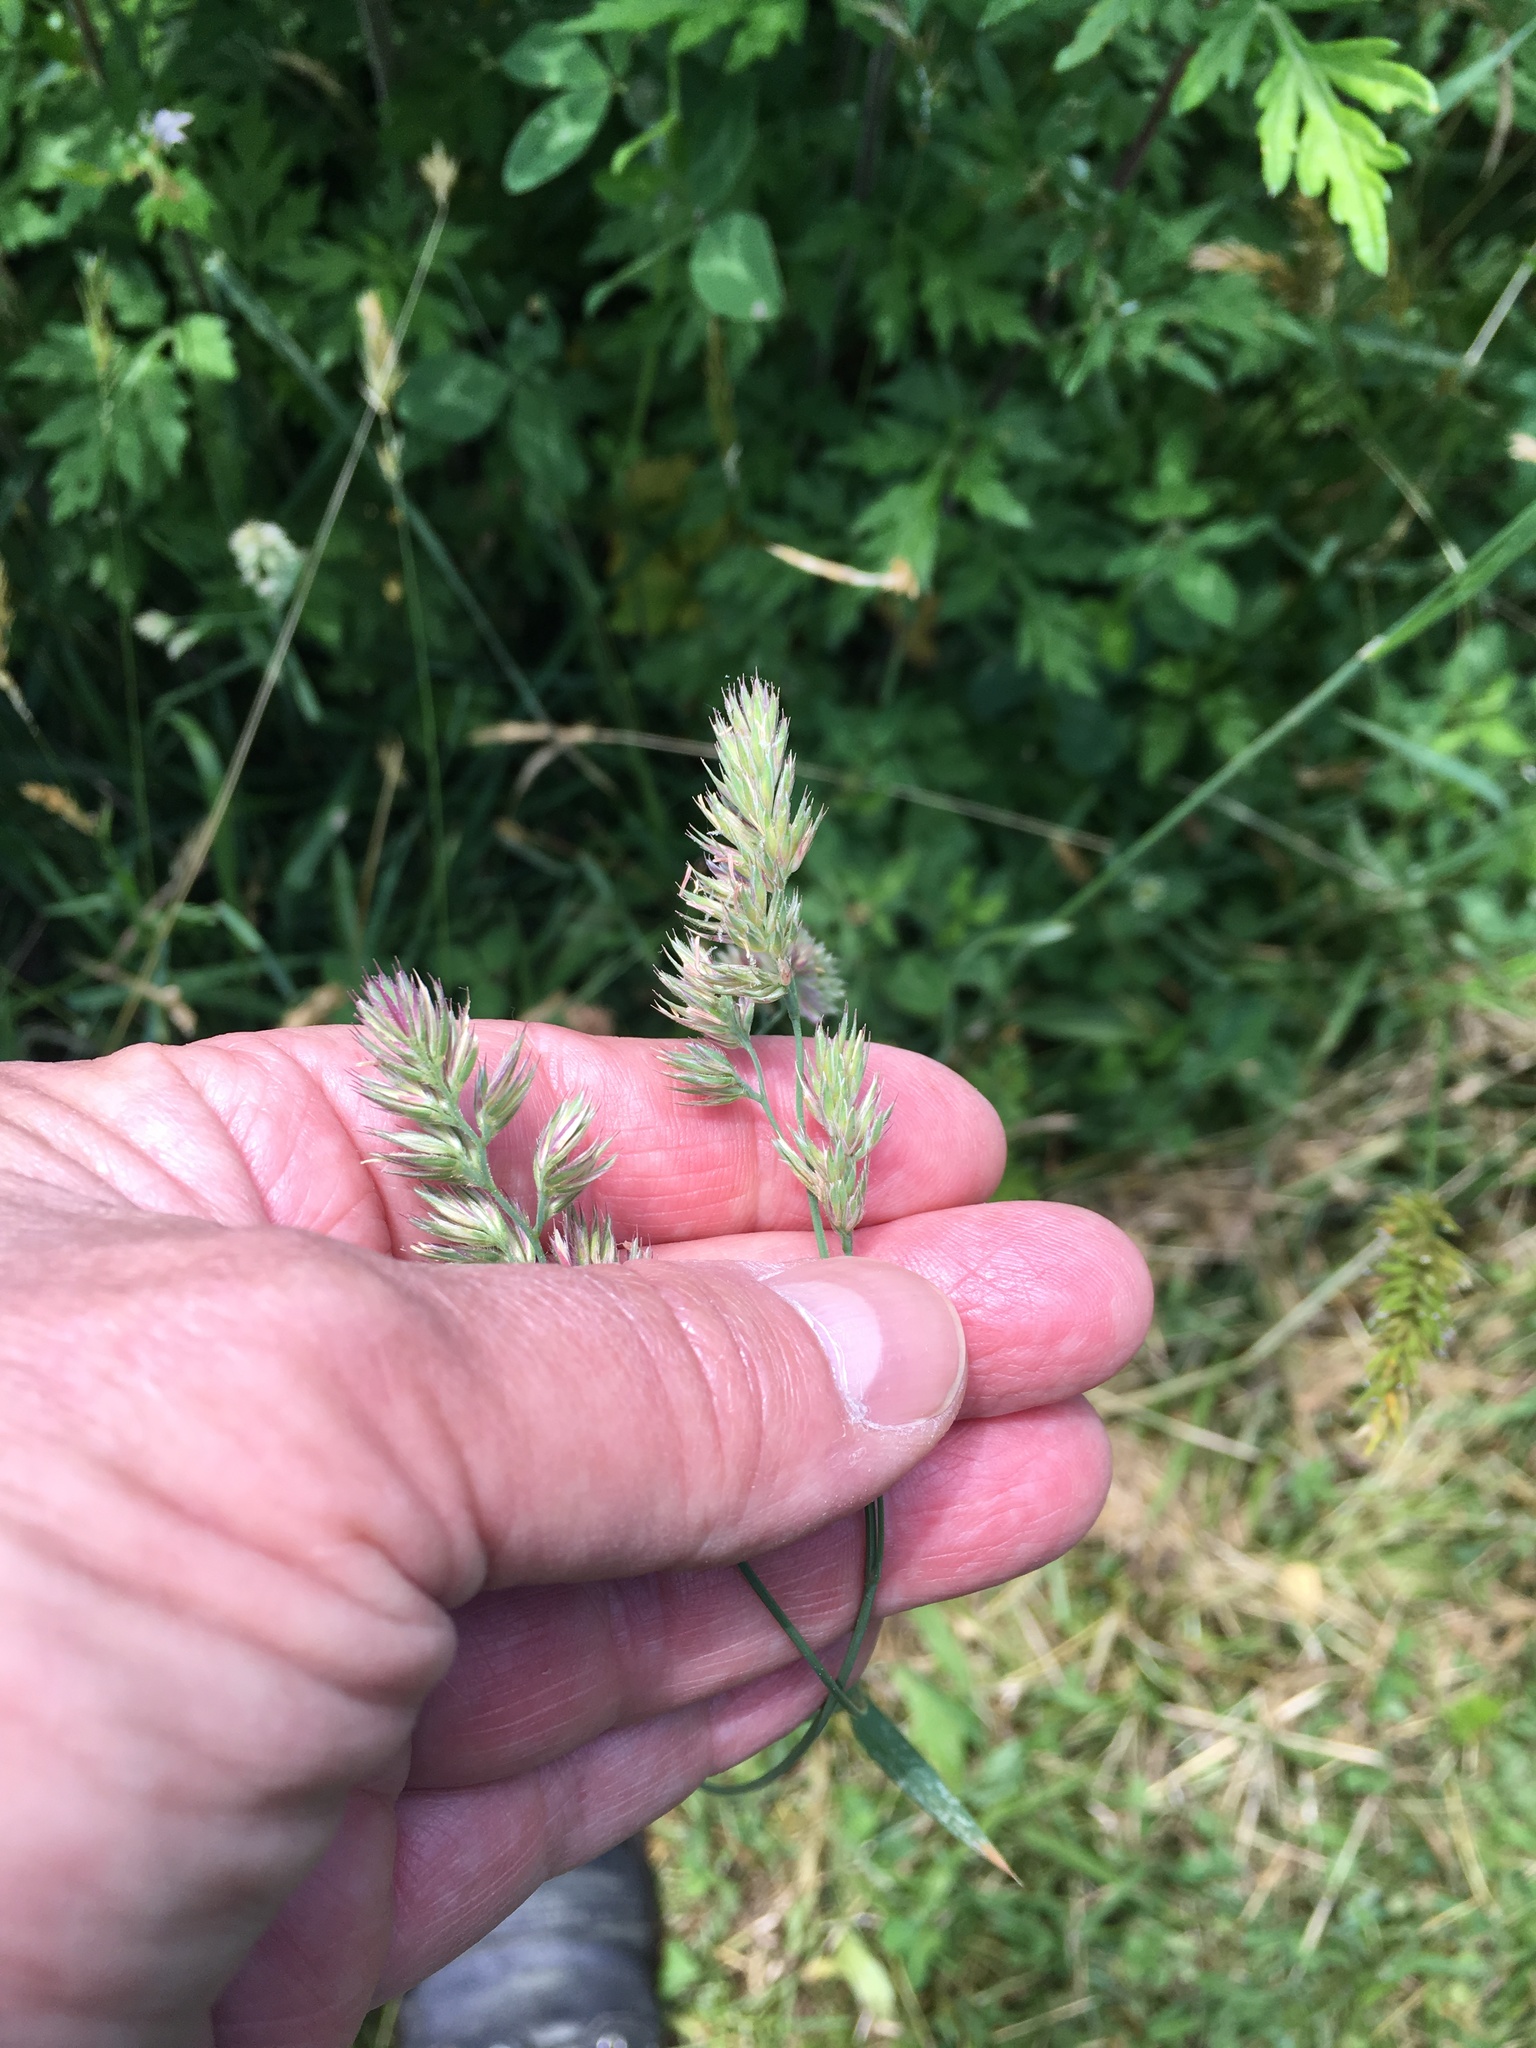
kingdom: Plantae
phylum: Tracheophyta
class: Liliopsida
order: Poales
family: Poaceae
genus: Dactylis
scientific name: Dactylis glomerata
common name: Orchardgrass
